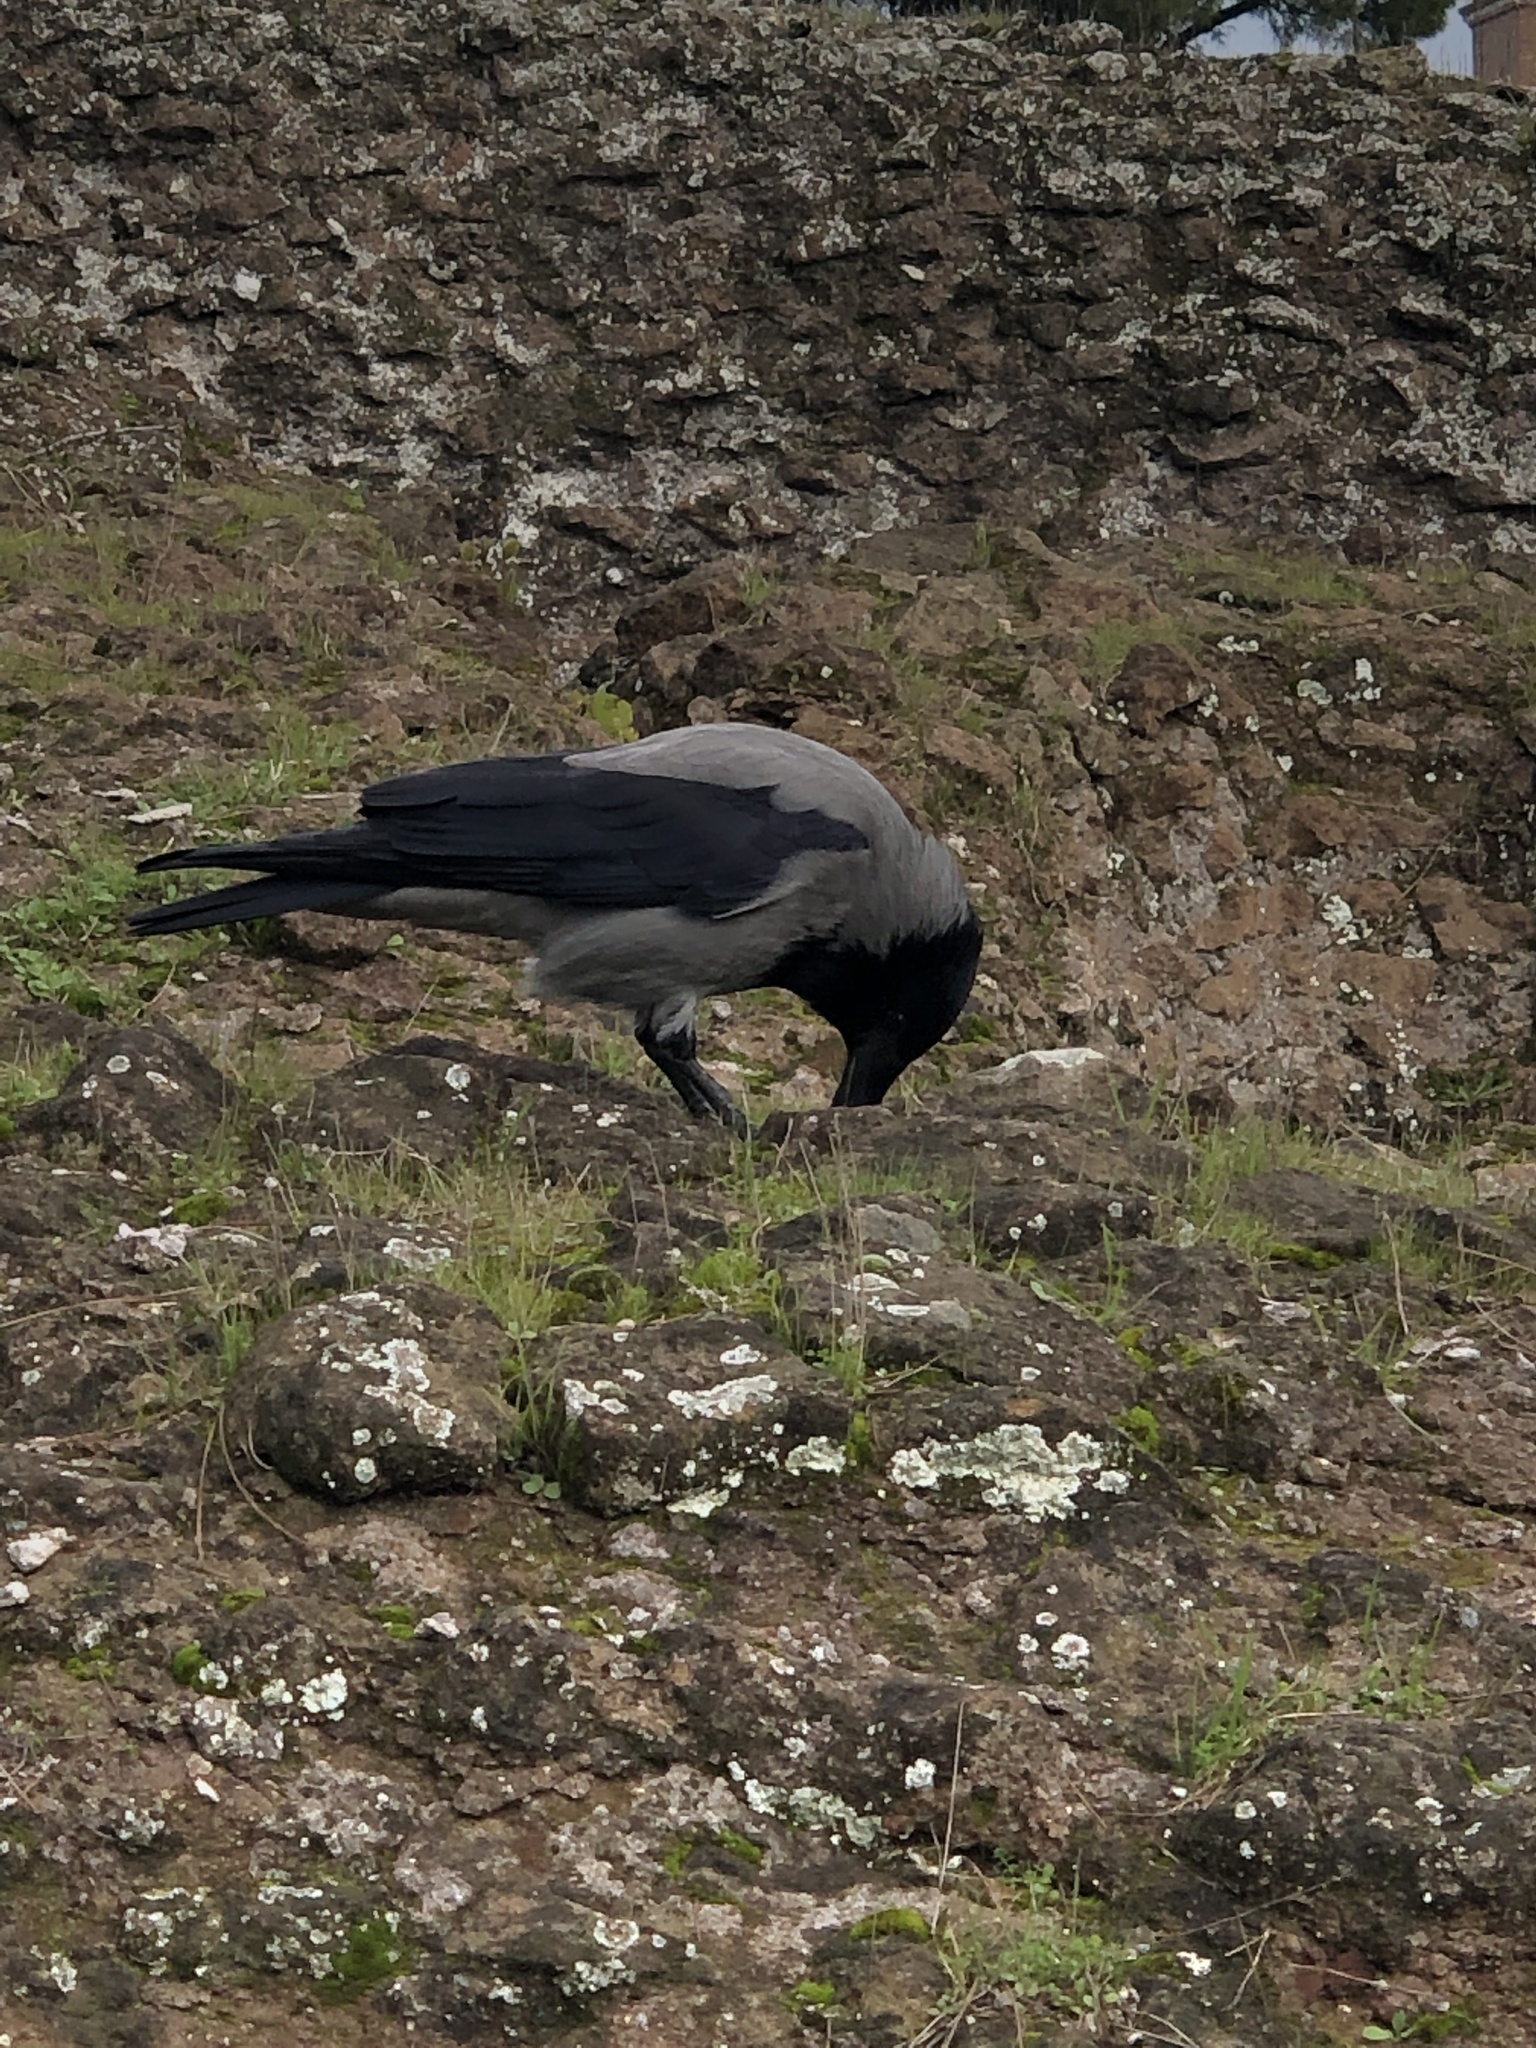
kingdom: Animalia
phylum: Chordata
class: Aves
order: Passeriformes
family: Corvidae
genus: Corvus
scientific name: Corvus cornix
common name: Hooded crow
